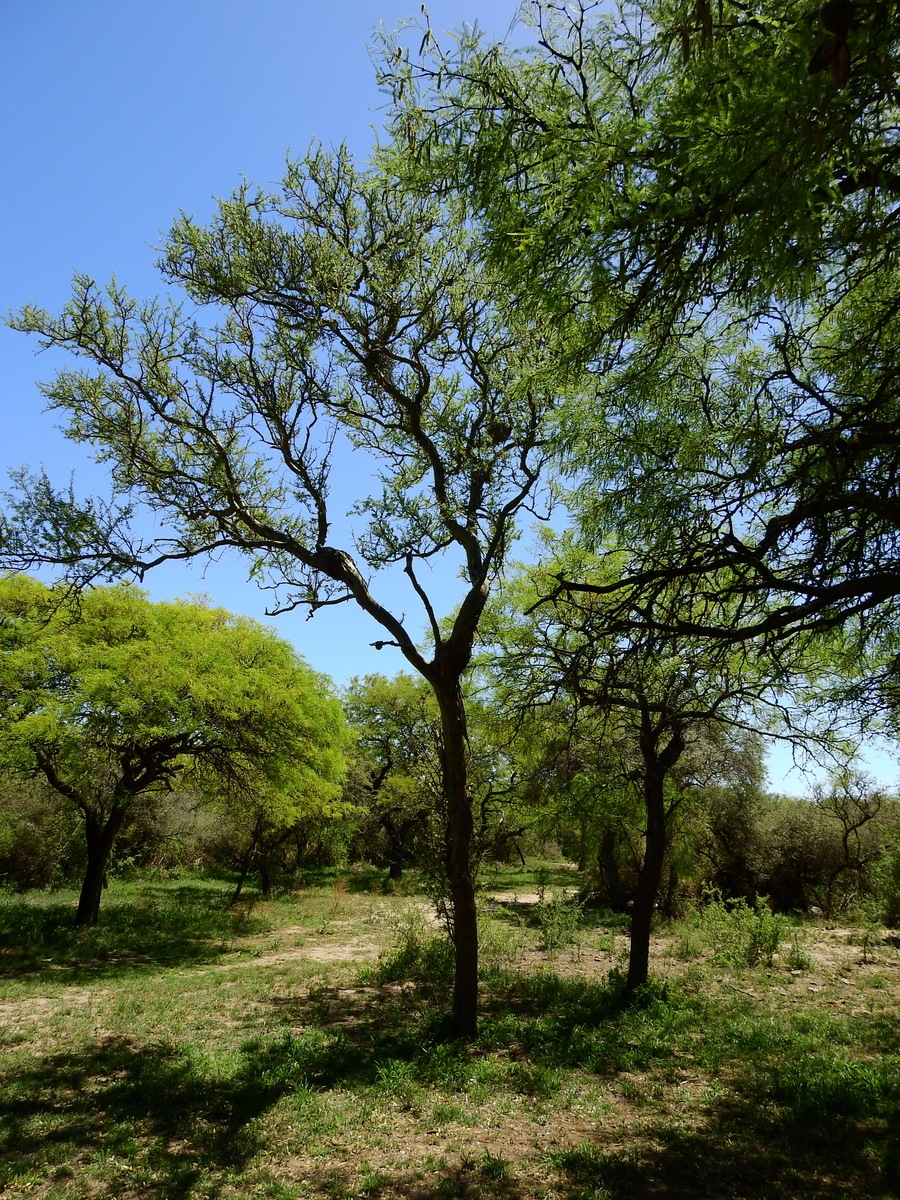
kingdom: Plantae
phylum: Tracheophyta
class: Magnoliopsida
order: Fabales
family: Fabaceae
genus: Geoffroea
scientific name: Geoffroea decorticans
